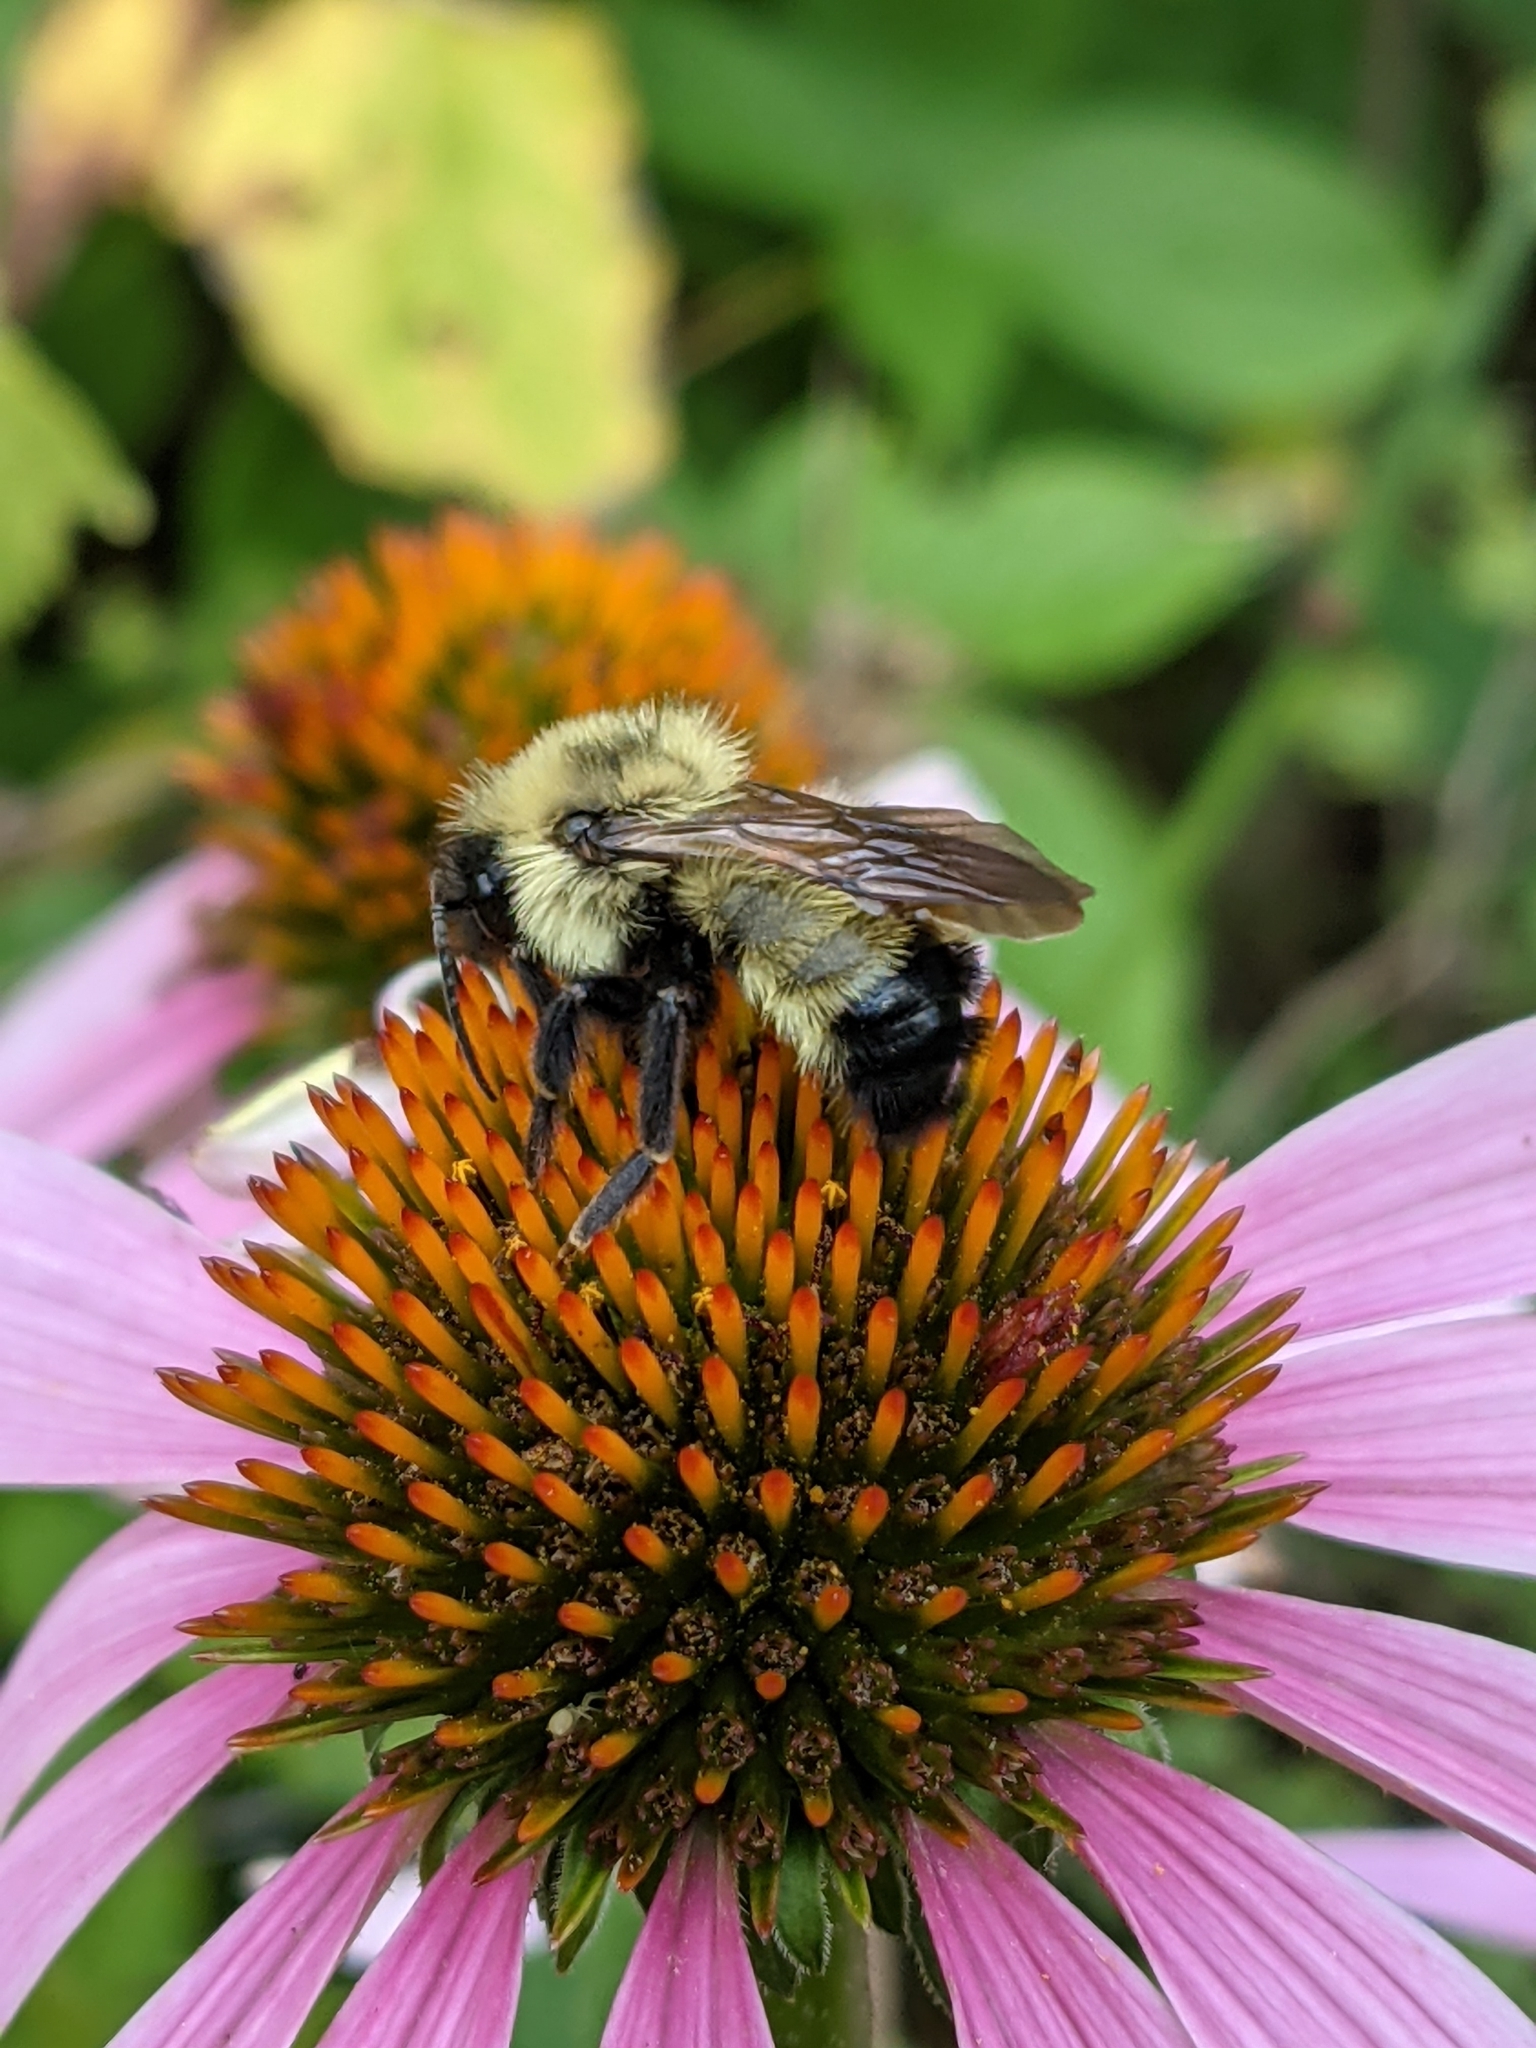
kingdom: Animalia
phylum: Arthropoda
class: Insecta
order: Hymenoptera
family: Apidae
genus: Bombus
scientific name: Bombus citrinus
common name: Lemon cuckoo bumble bee
